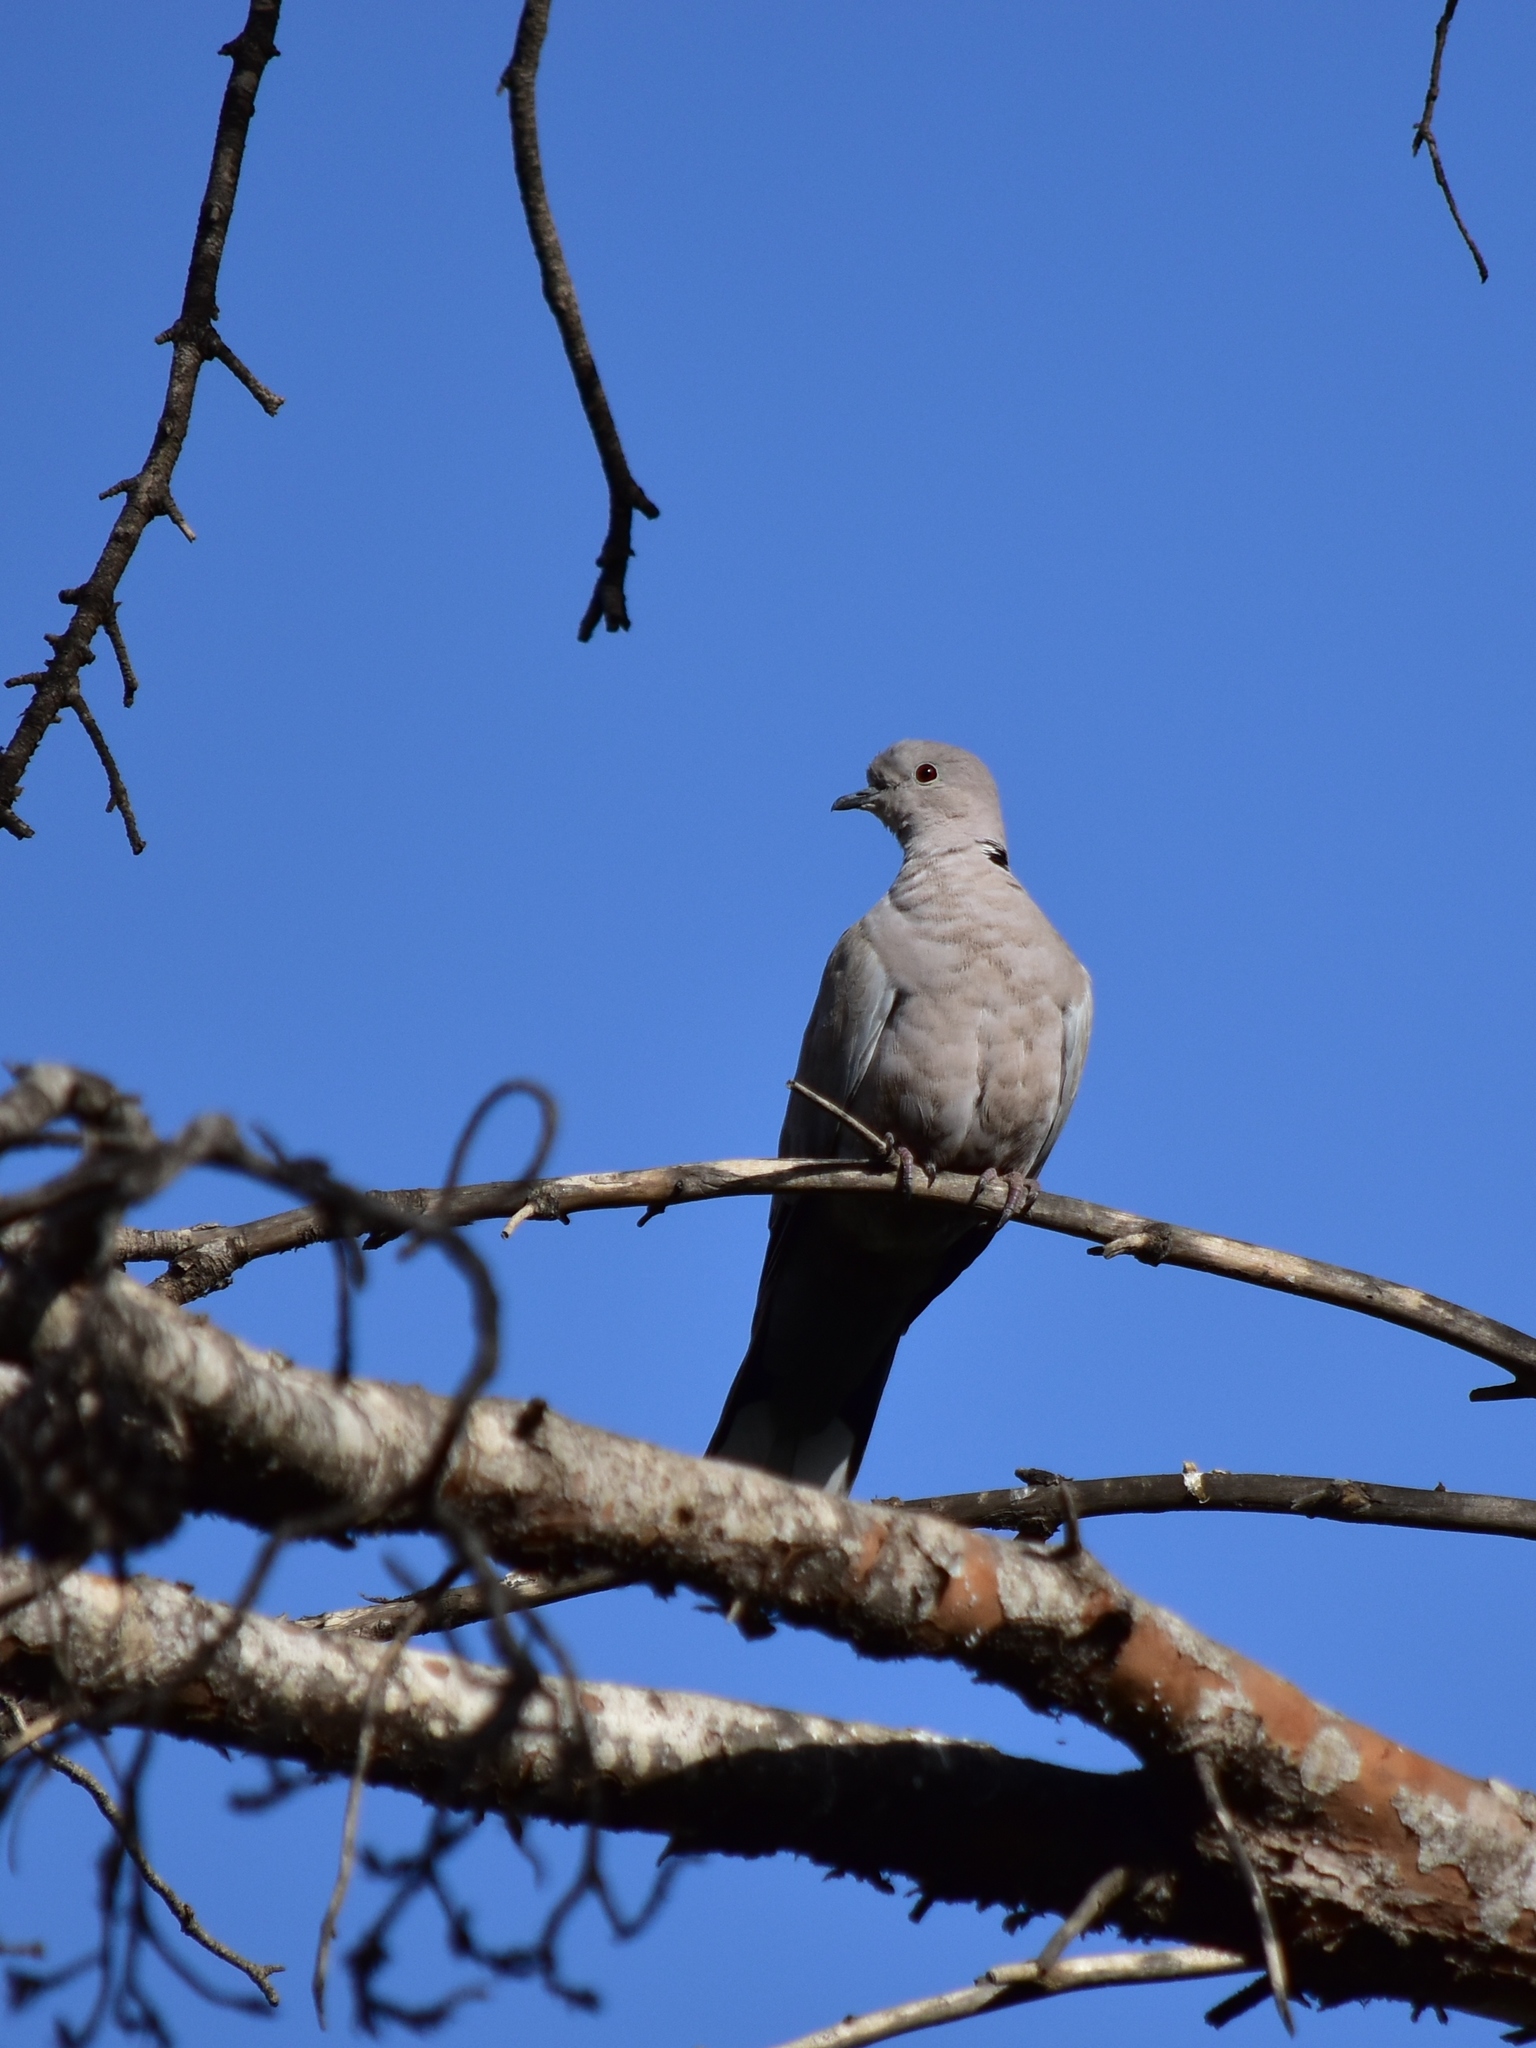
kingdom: Animalia
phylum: Chordata
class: Aves
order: Columbiformes
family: Columbidae
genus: Streptopelia
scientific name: Streptopelia decaocto
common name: Eurasian collared dove
